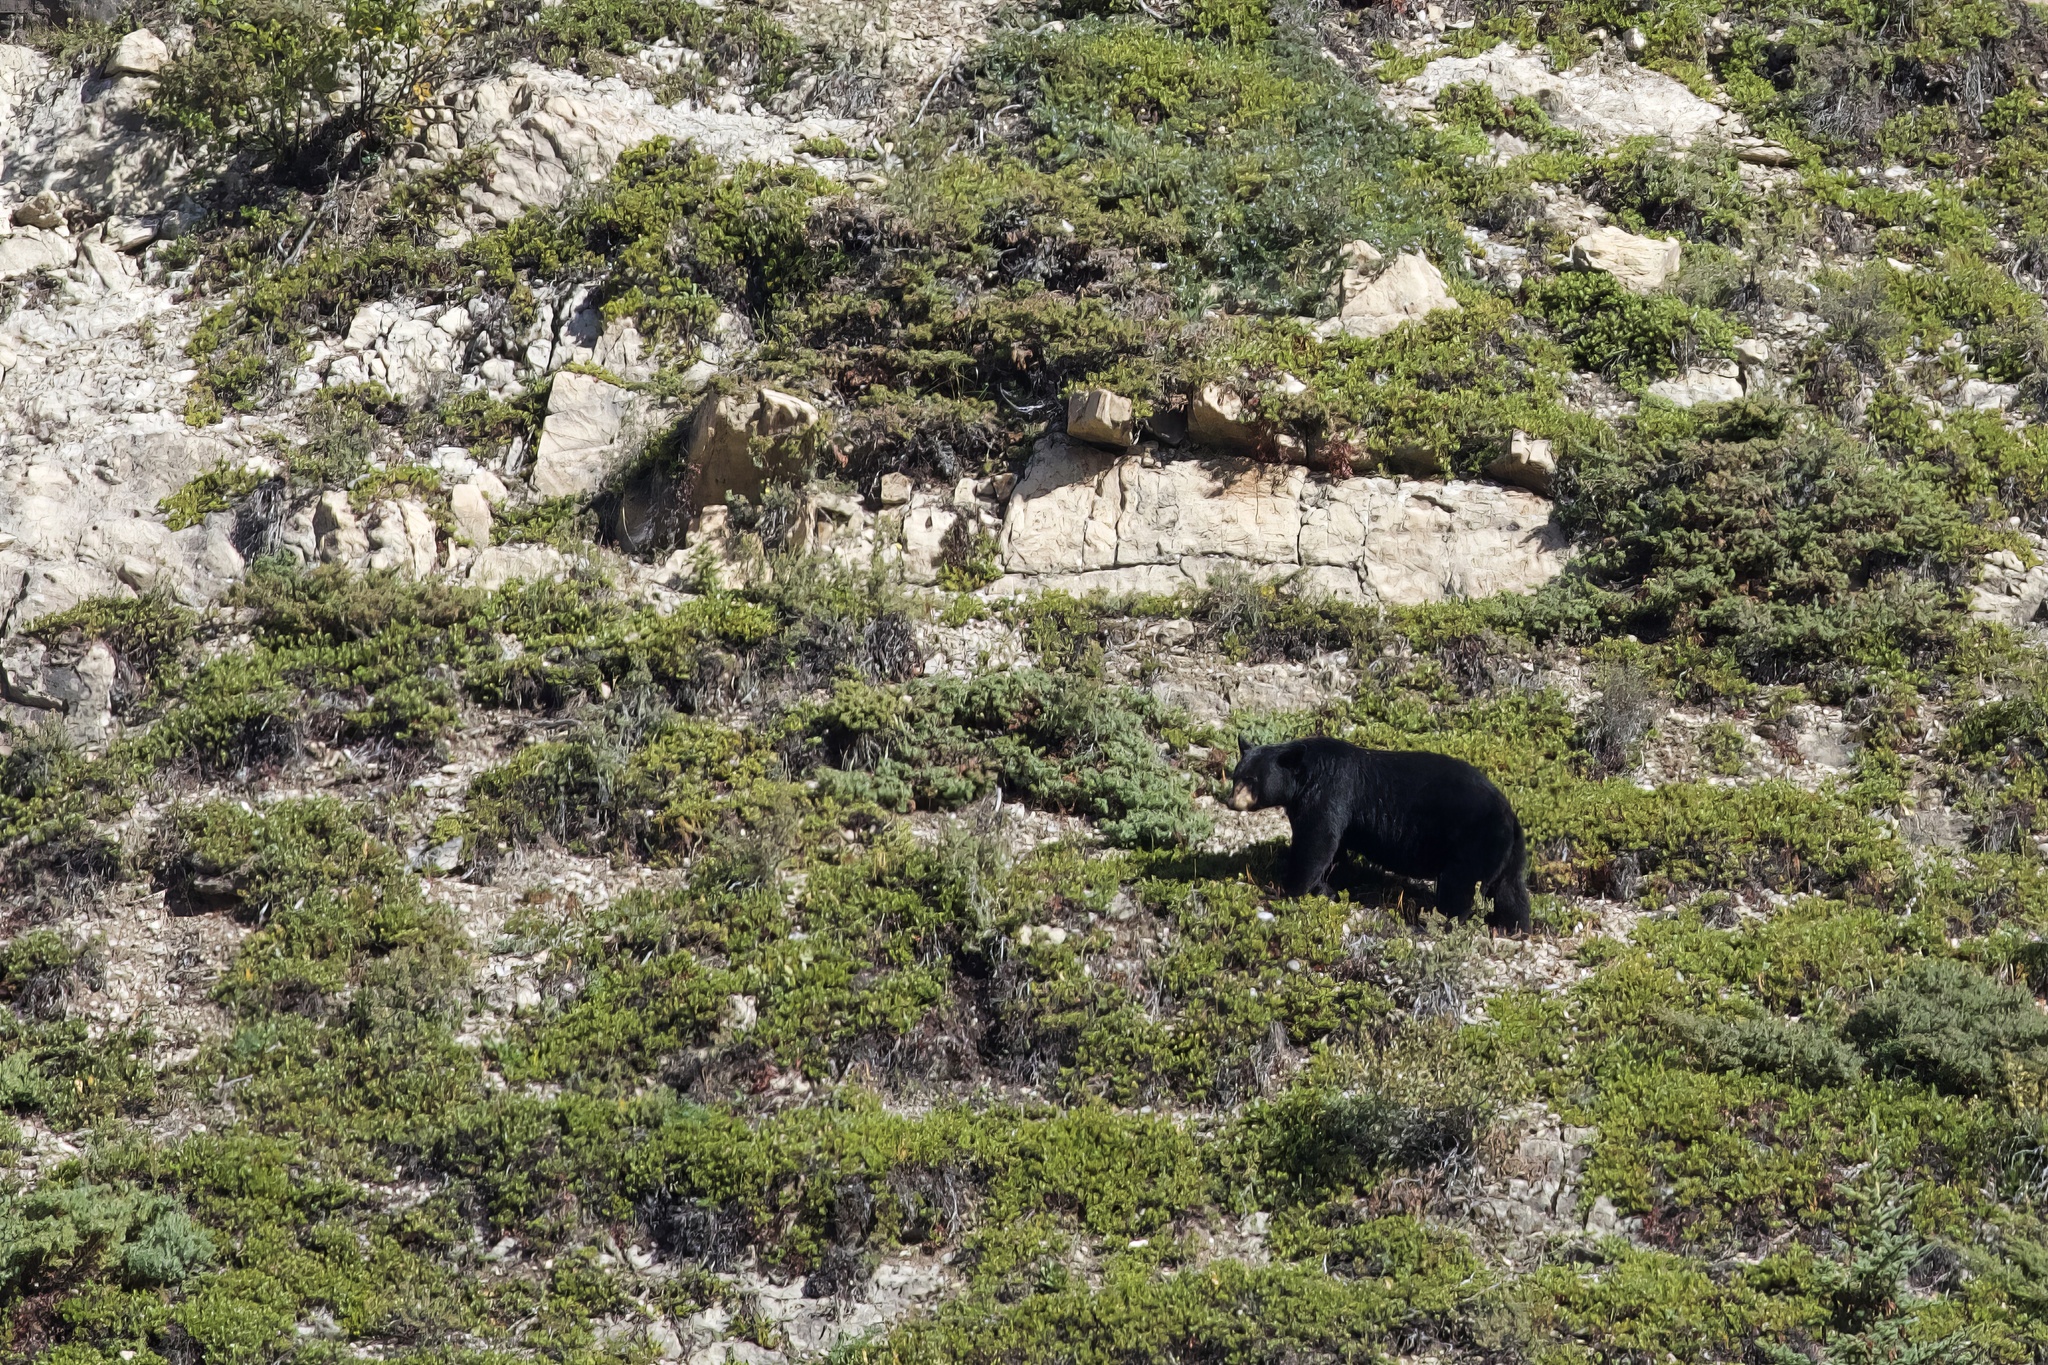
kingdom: Animalia
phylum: Chordata
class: Mammalia
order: Carnivora
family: Ursidae
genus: Ursus
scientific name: Ursus americanus
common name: American black bear
